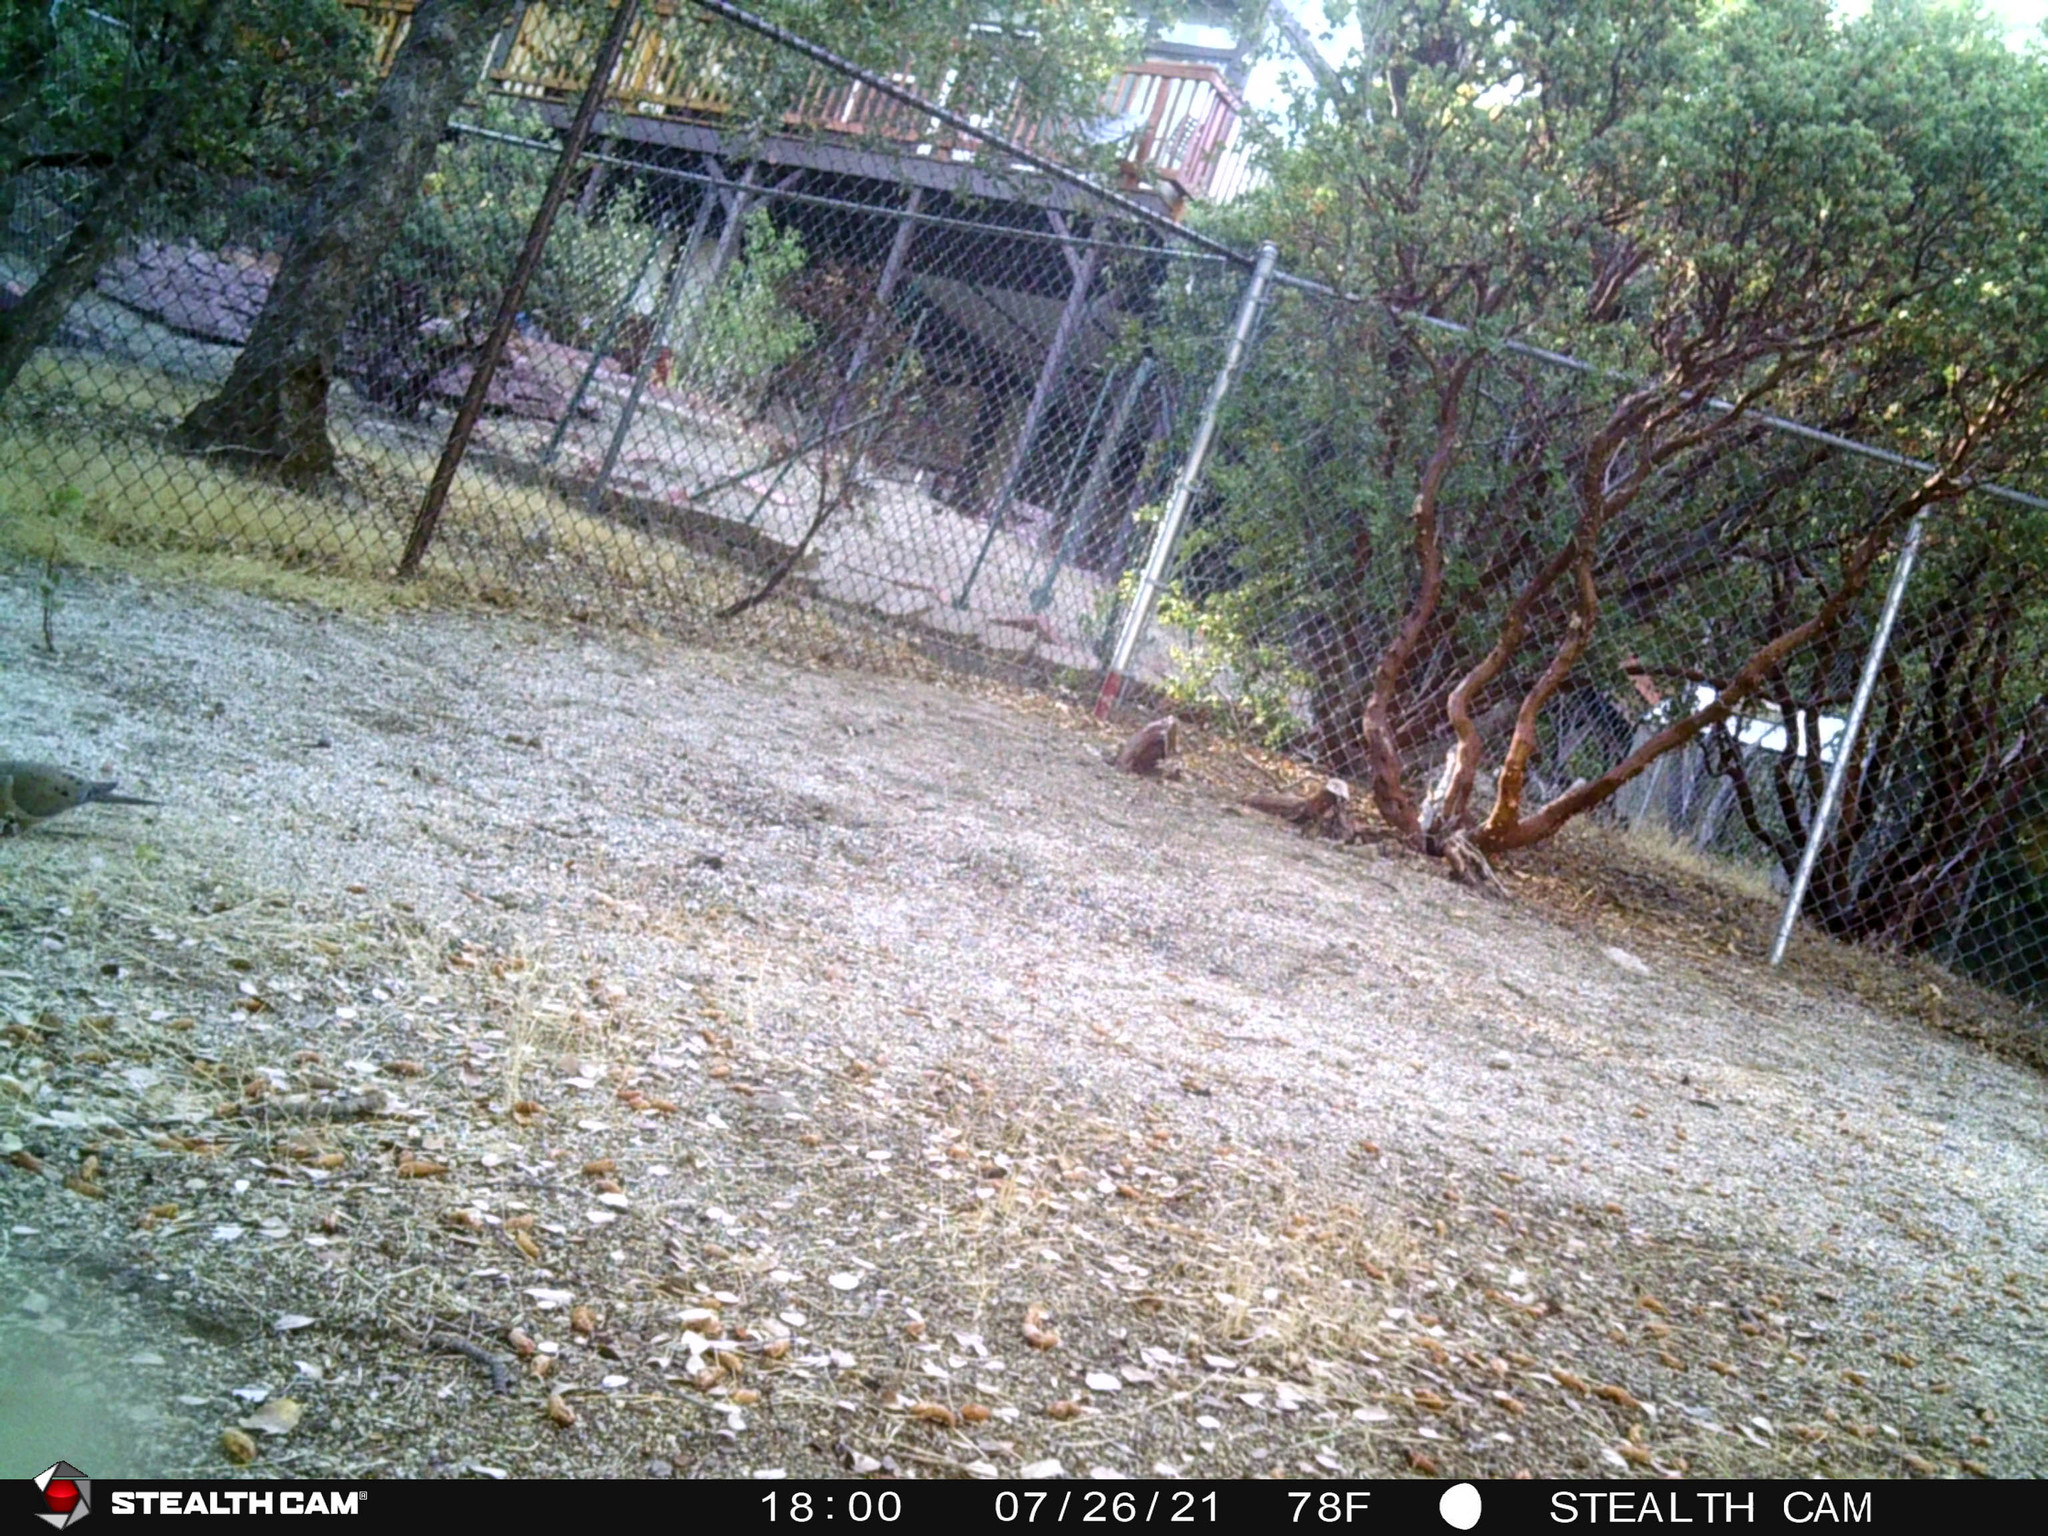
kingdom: Animalia
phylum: Chordata
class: Aves
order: Columbiformes
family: Columbidae
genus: Zenaida
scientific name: Zenaida macroura
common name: Mourning dove
